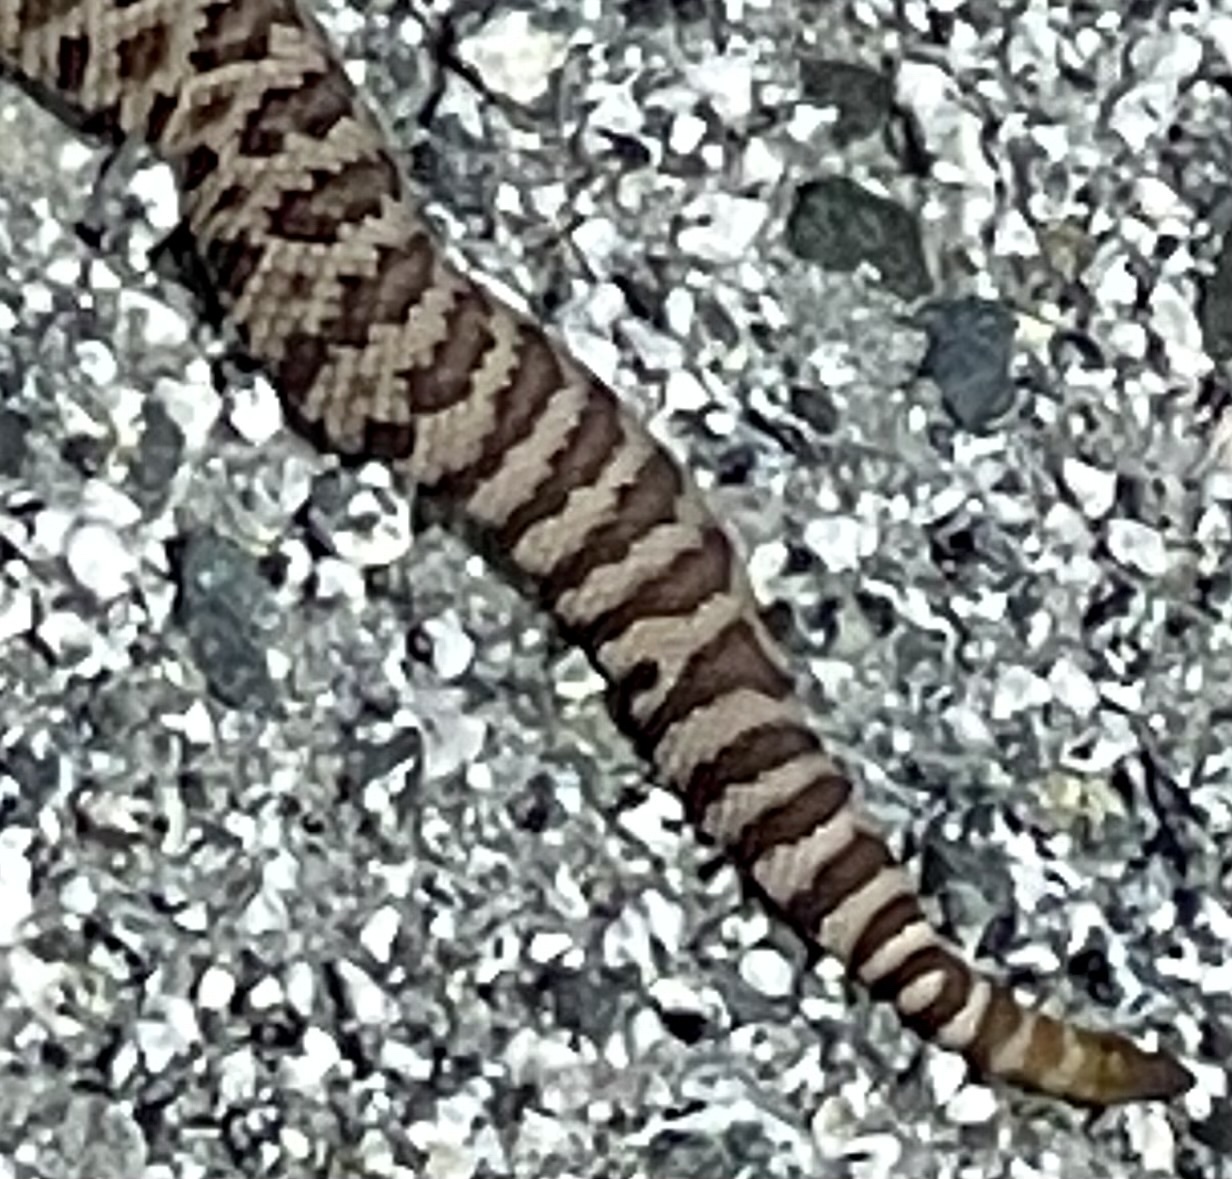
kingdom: Animalia
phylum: Chordata
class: Squamata
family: Viperidae
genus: Crotalus
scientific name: Crotalus oreganus
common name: Abyssus
